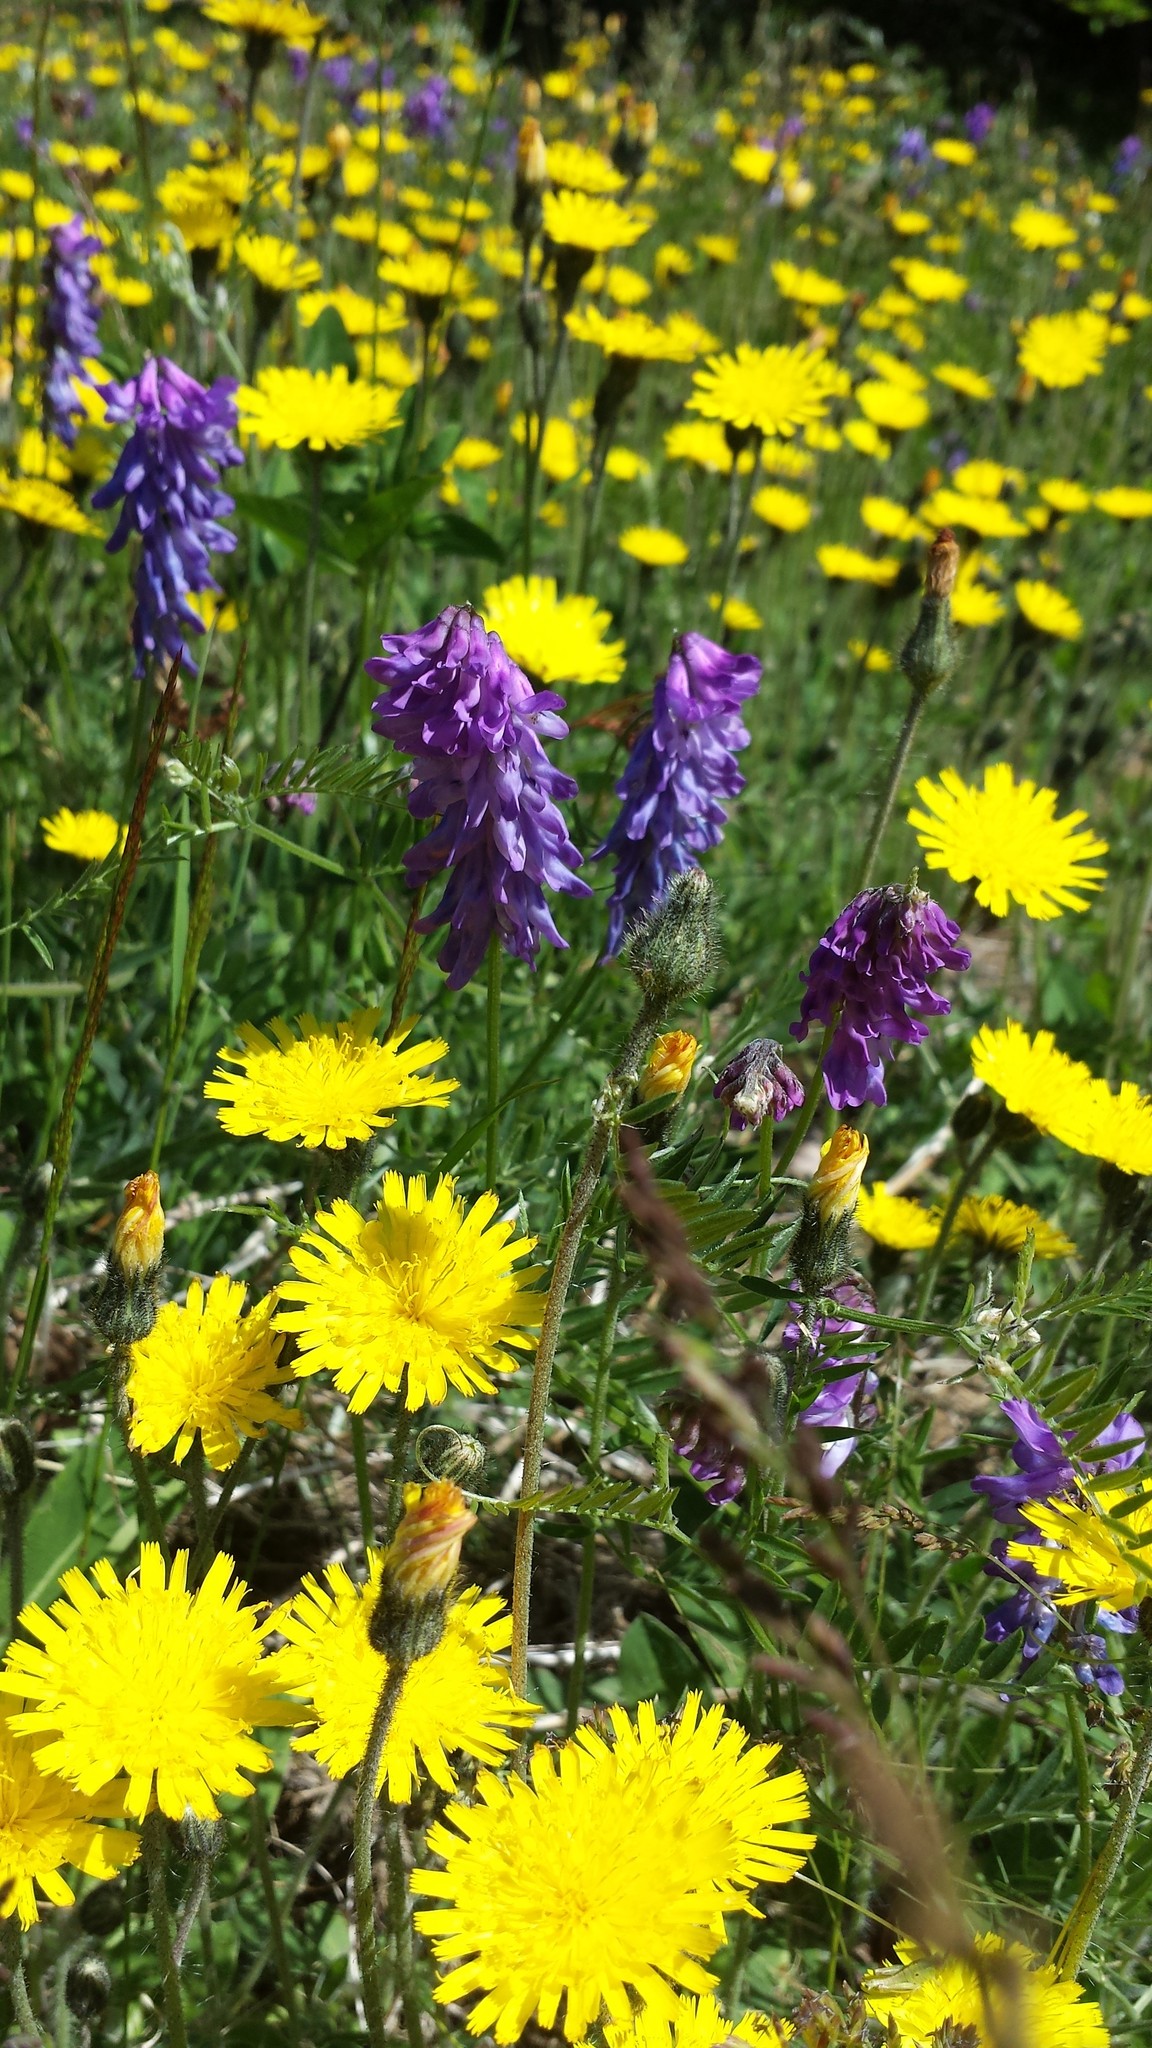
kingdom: Plantae
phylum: Tracheophyta
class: Magnoliopsida
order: Fabales
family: Fabaceae
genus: Vicia
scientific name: Vicia cracca
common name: Bird vetch
